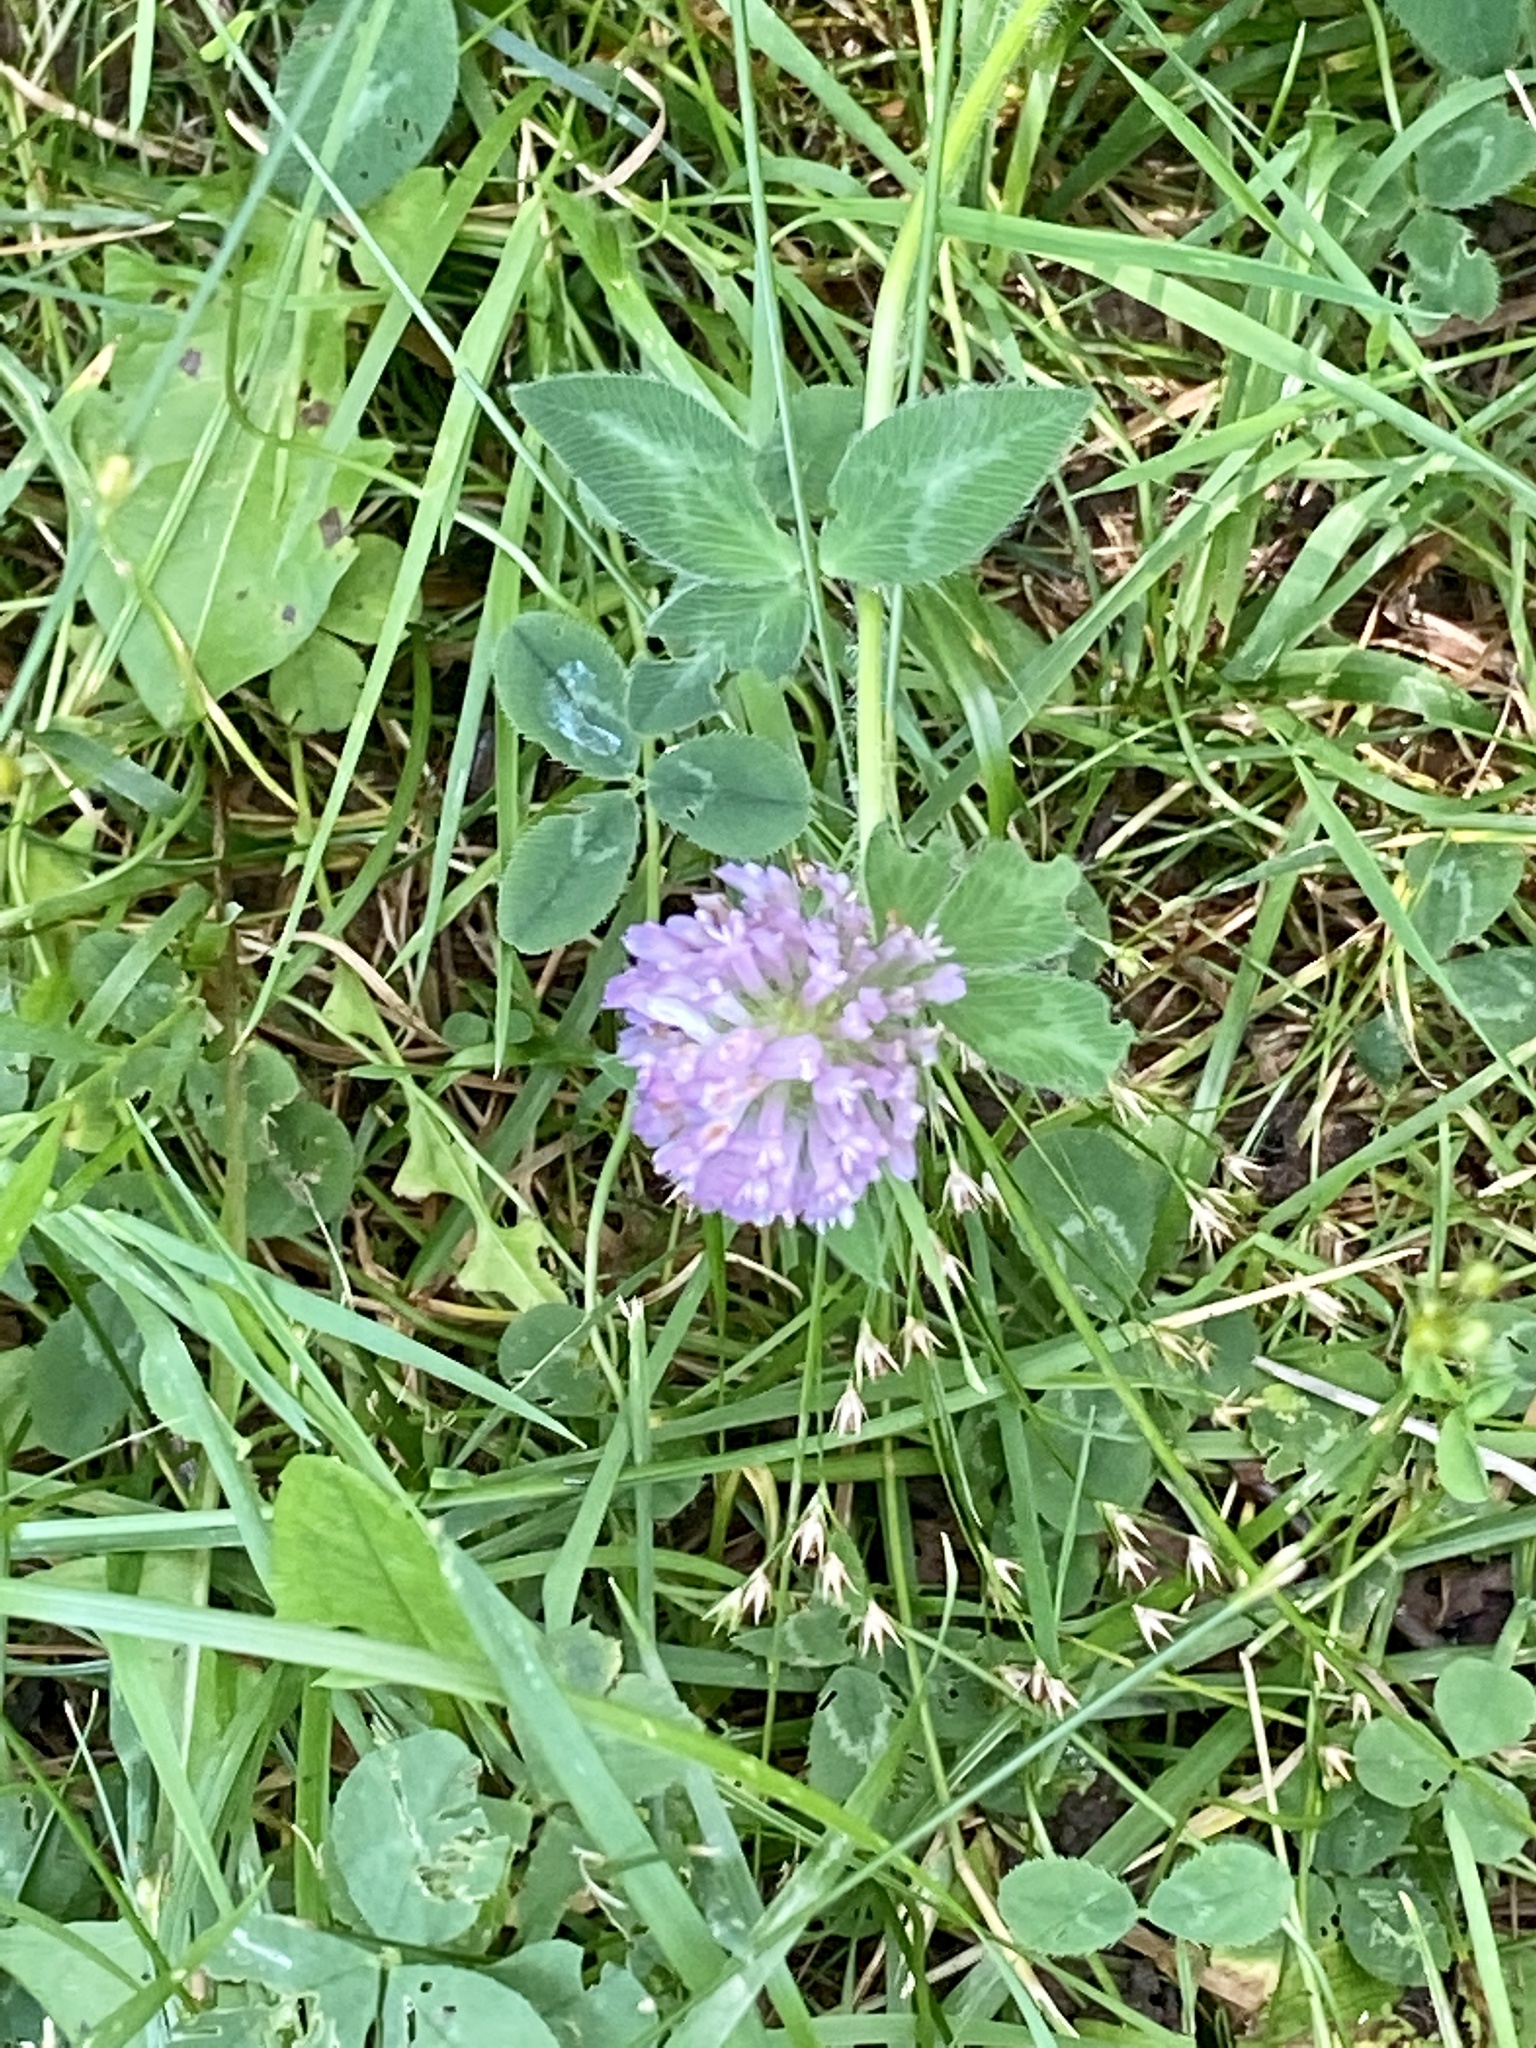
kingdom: Plantae
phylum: Tracheophyta
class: Magnoliopsida
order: Fabales
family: Fabaceae
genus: Trifolium
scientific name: Trifolium pratense
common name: Red clover
